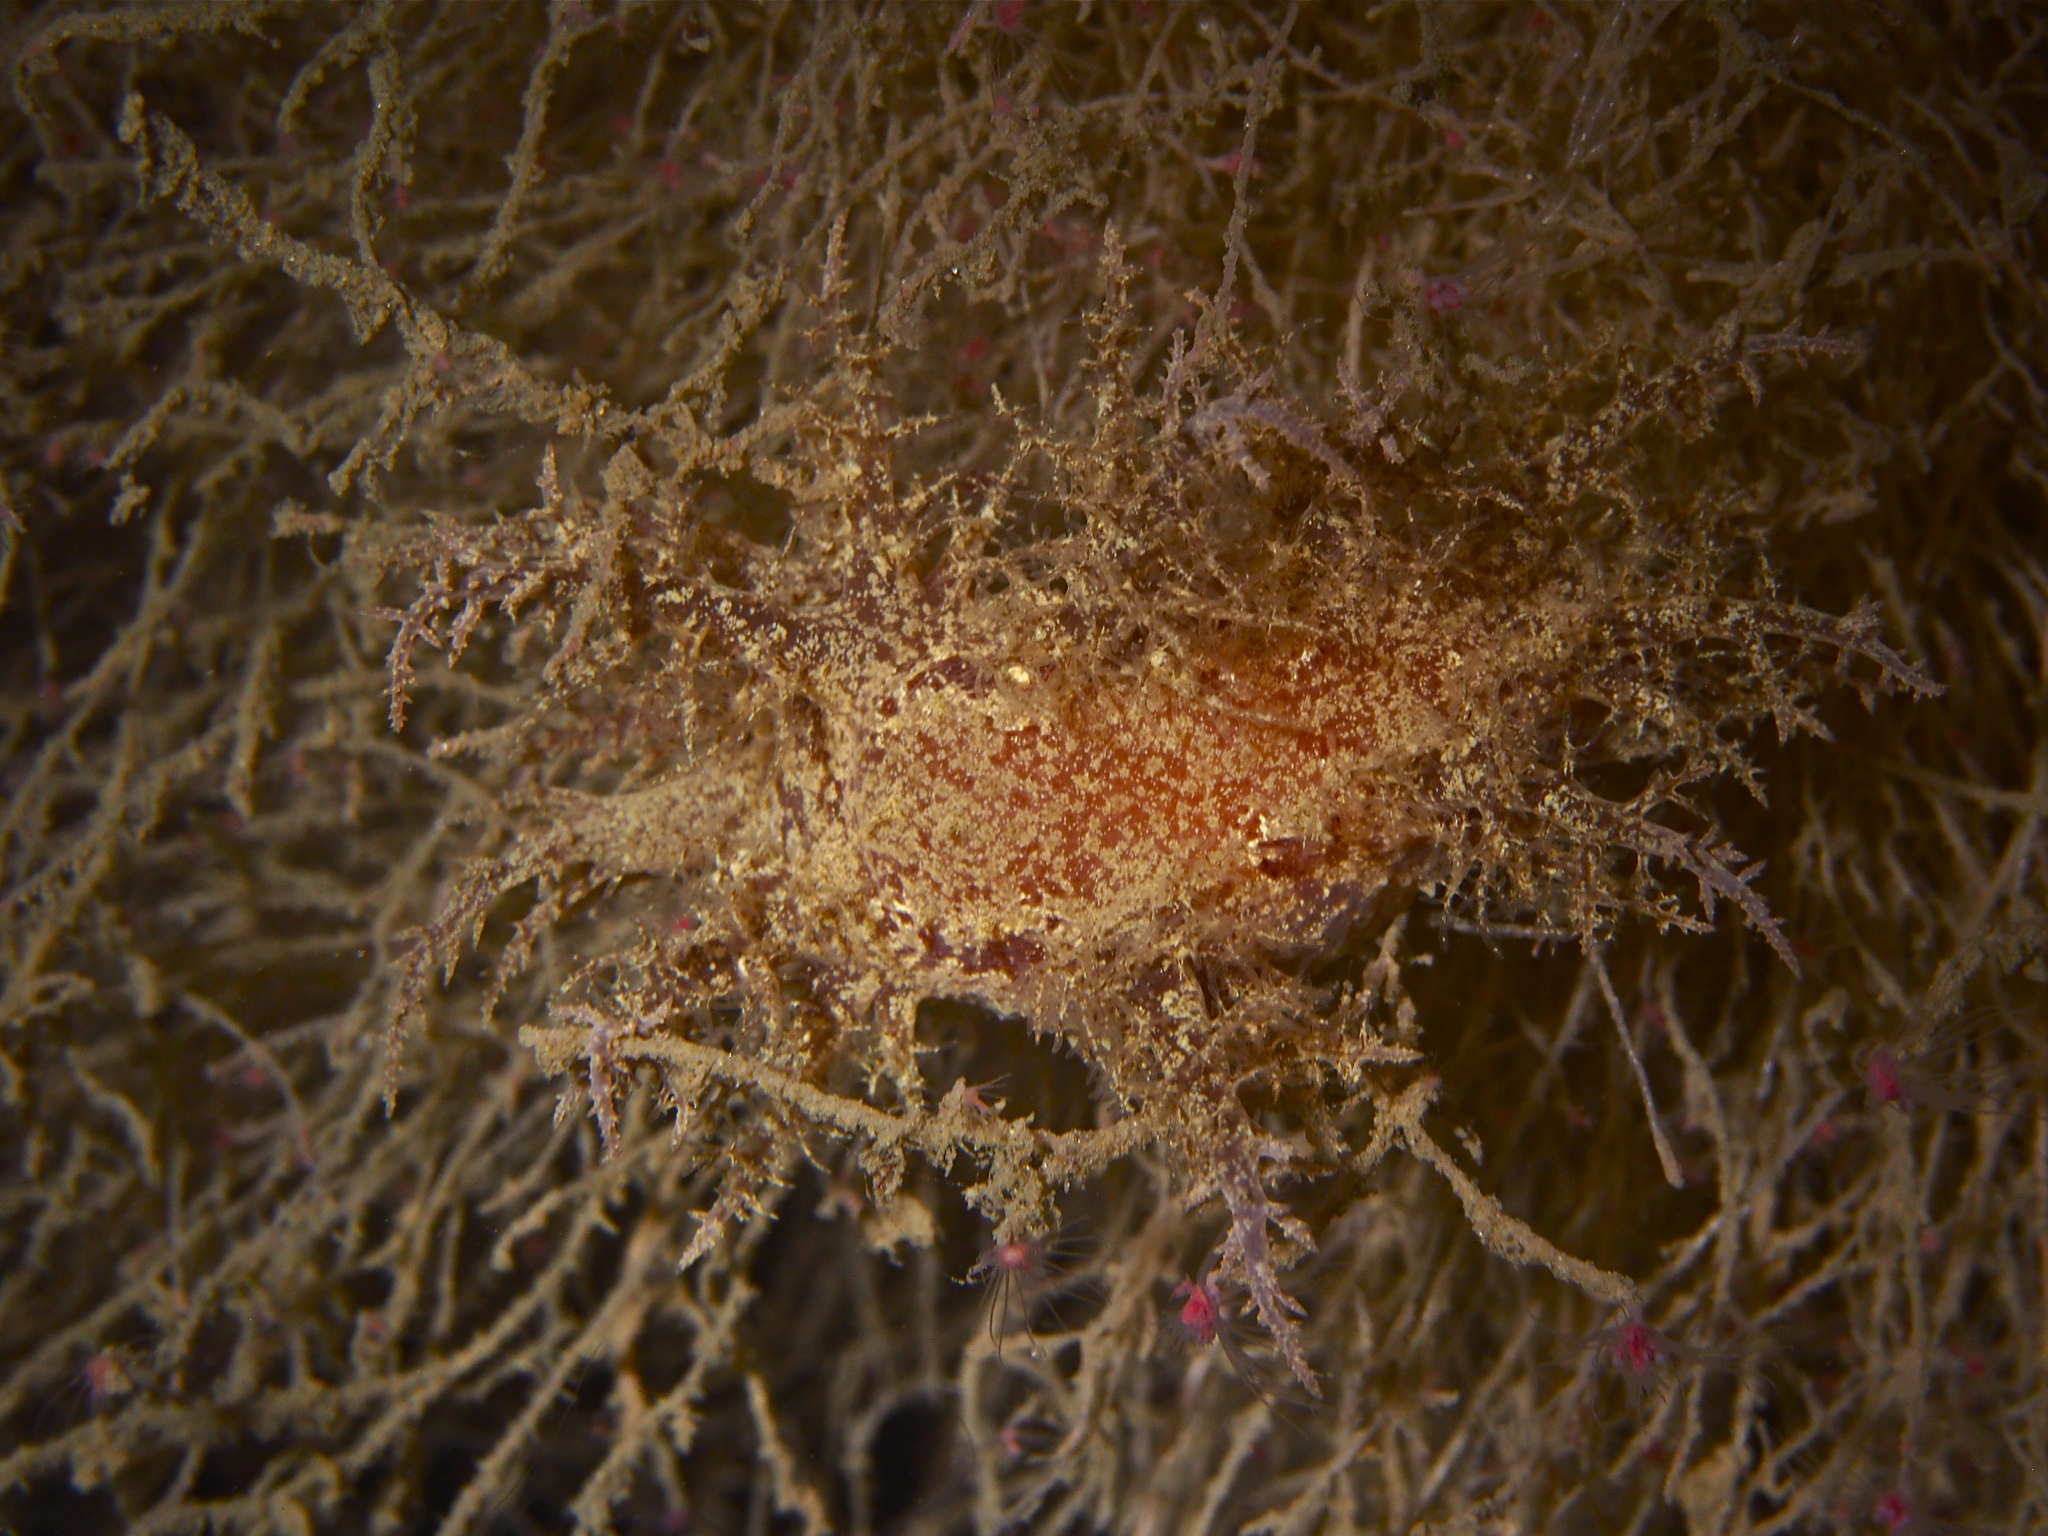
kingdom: Animalia
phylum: Mollusca
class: Gastropoda
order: Nudibranchia
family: Dendronotidae
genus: Dendronotus
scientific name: Dendronotus europaeus
